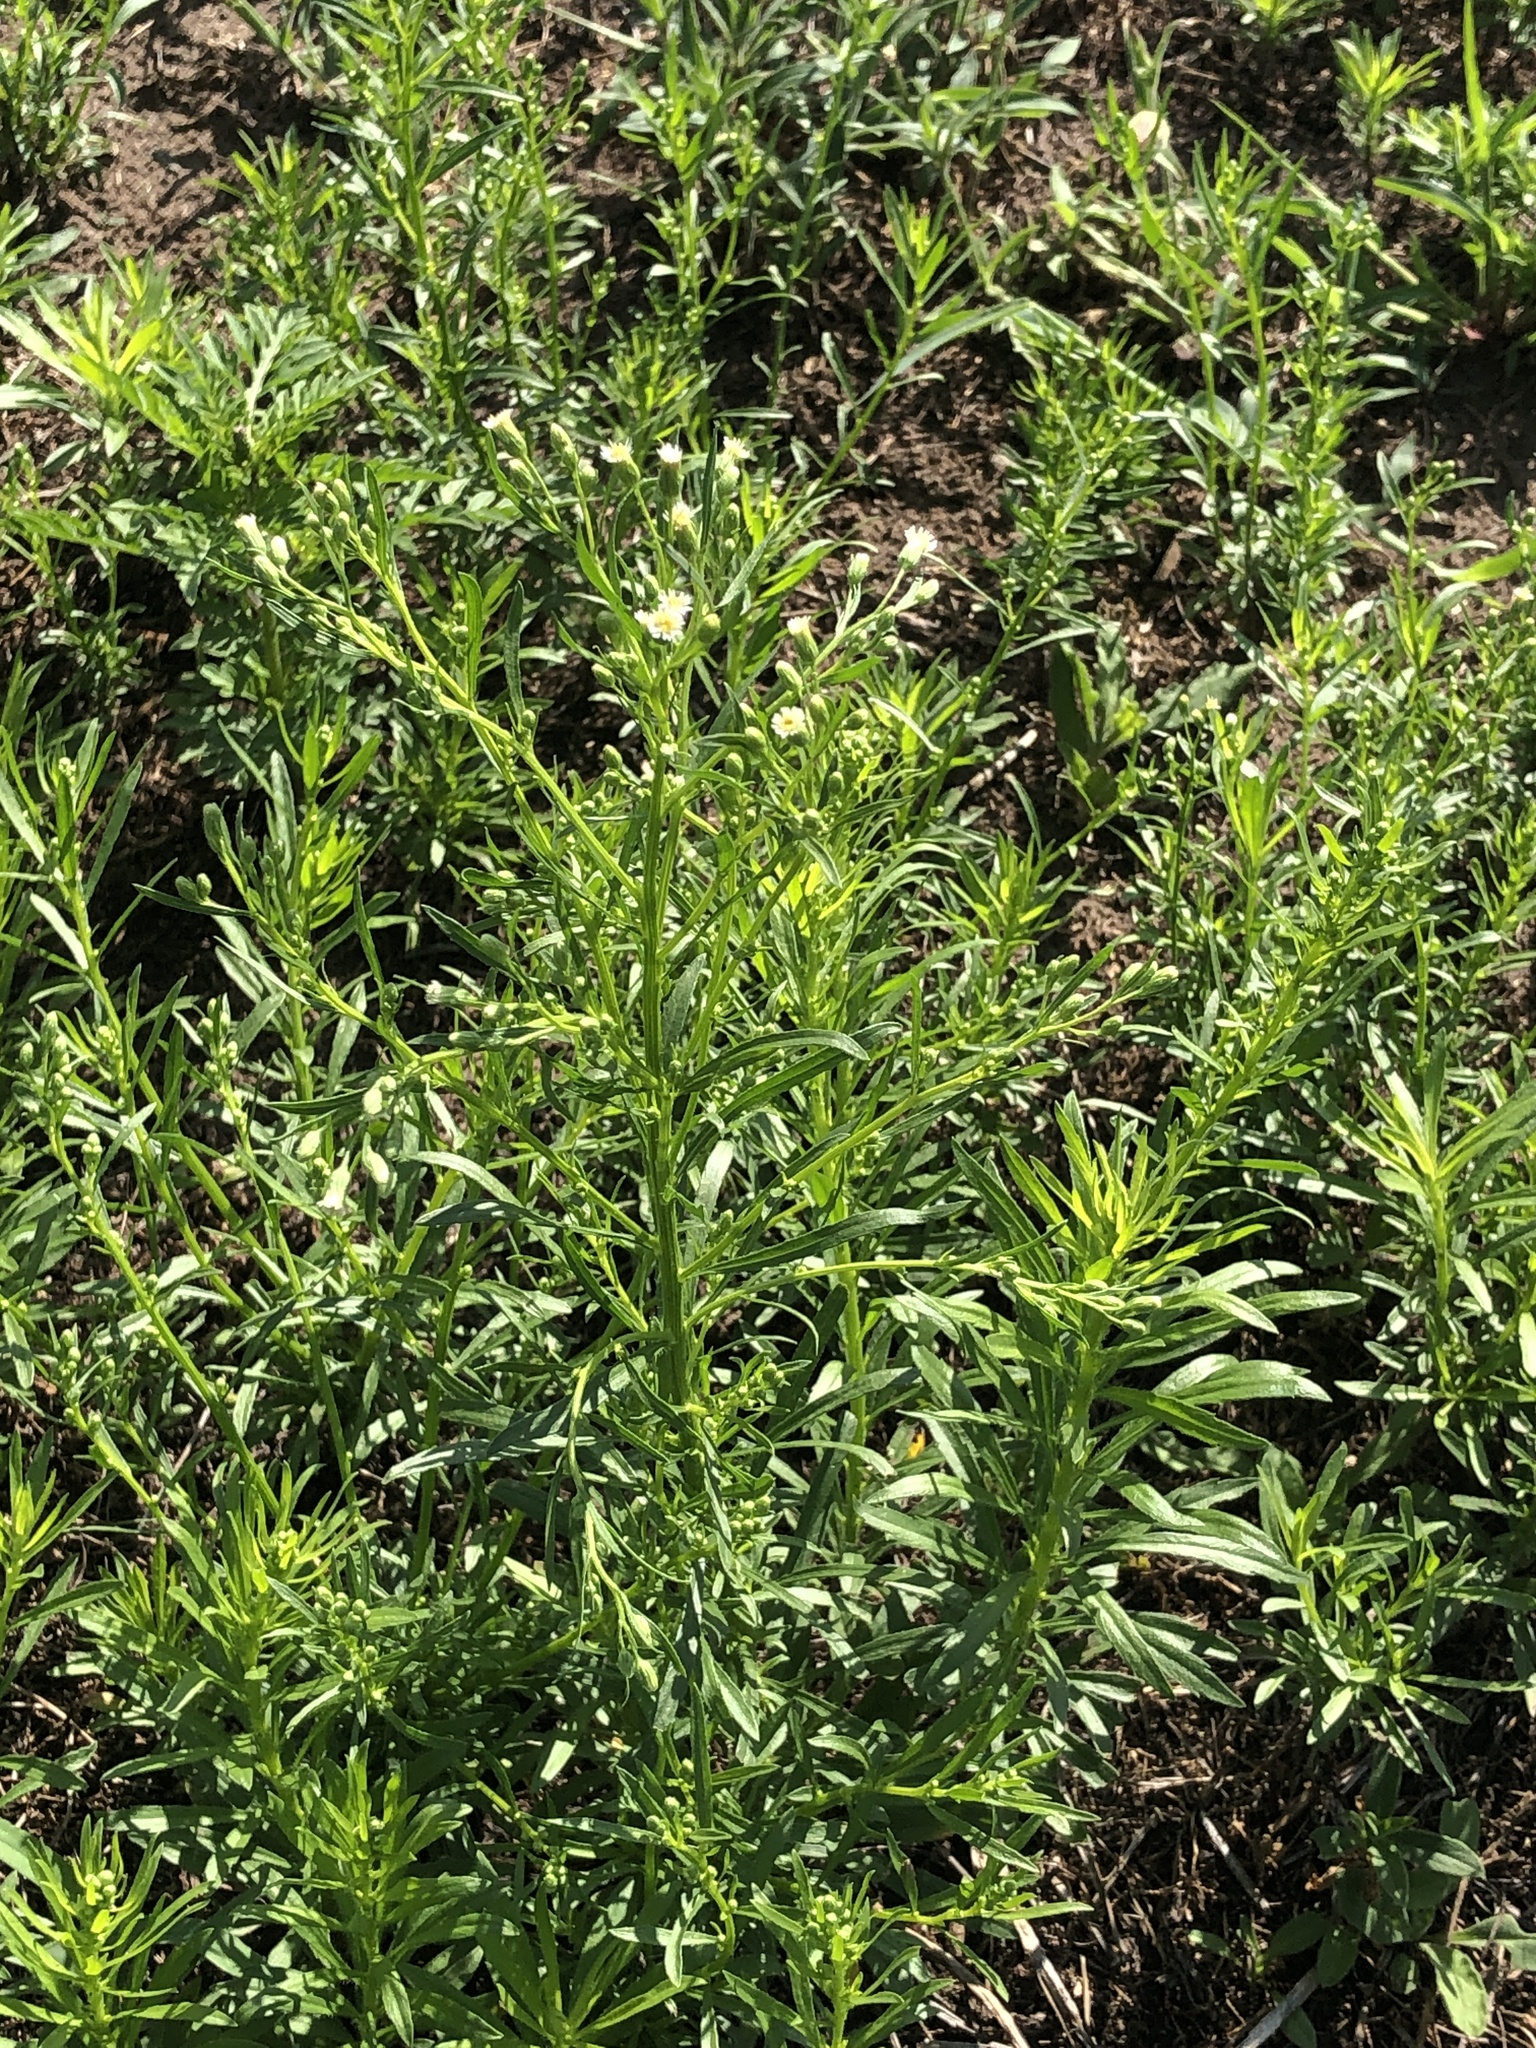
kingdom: Plantae
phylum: Tracheophyta
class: Magnoliopsida
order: Asterales
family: Asteraceae
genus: Erigeron
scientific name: Erigeron canadensis
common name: Canadian fleabane
